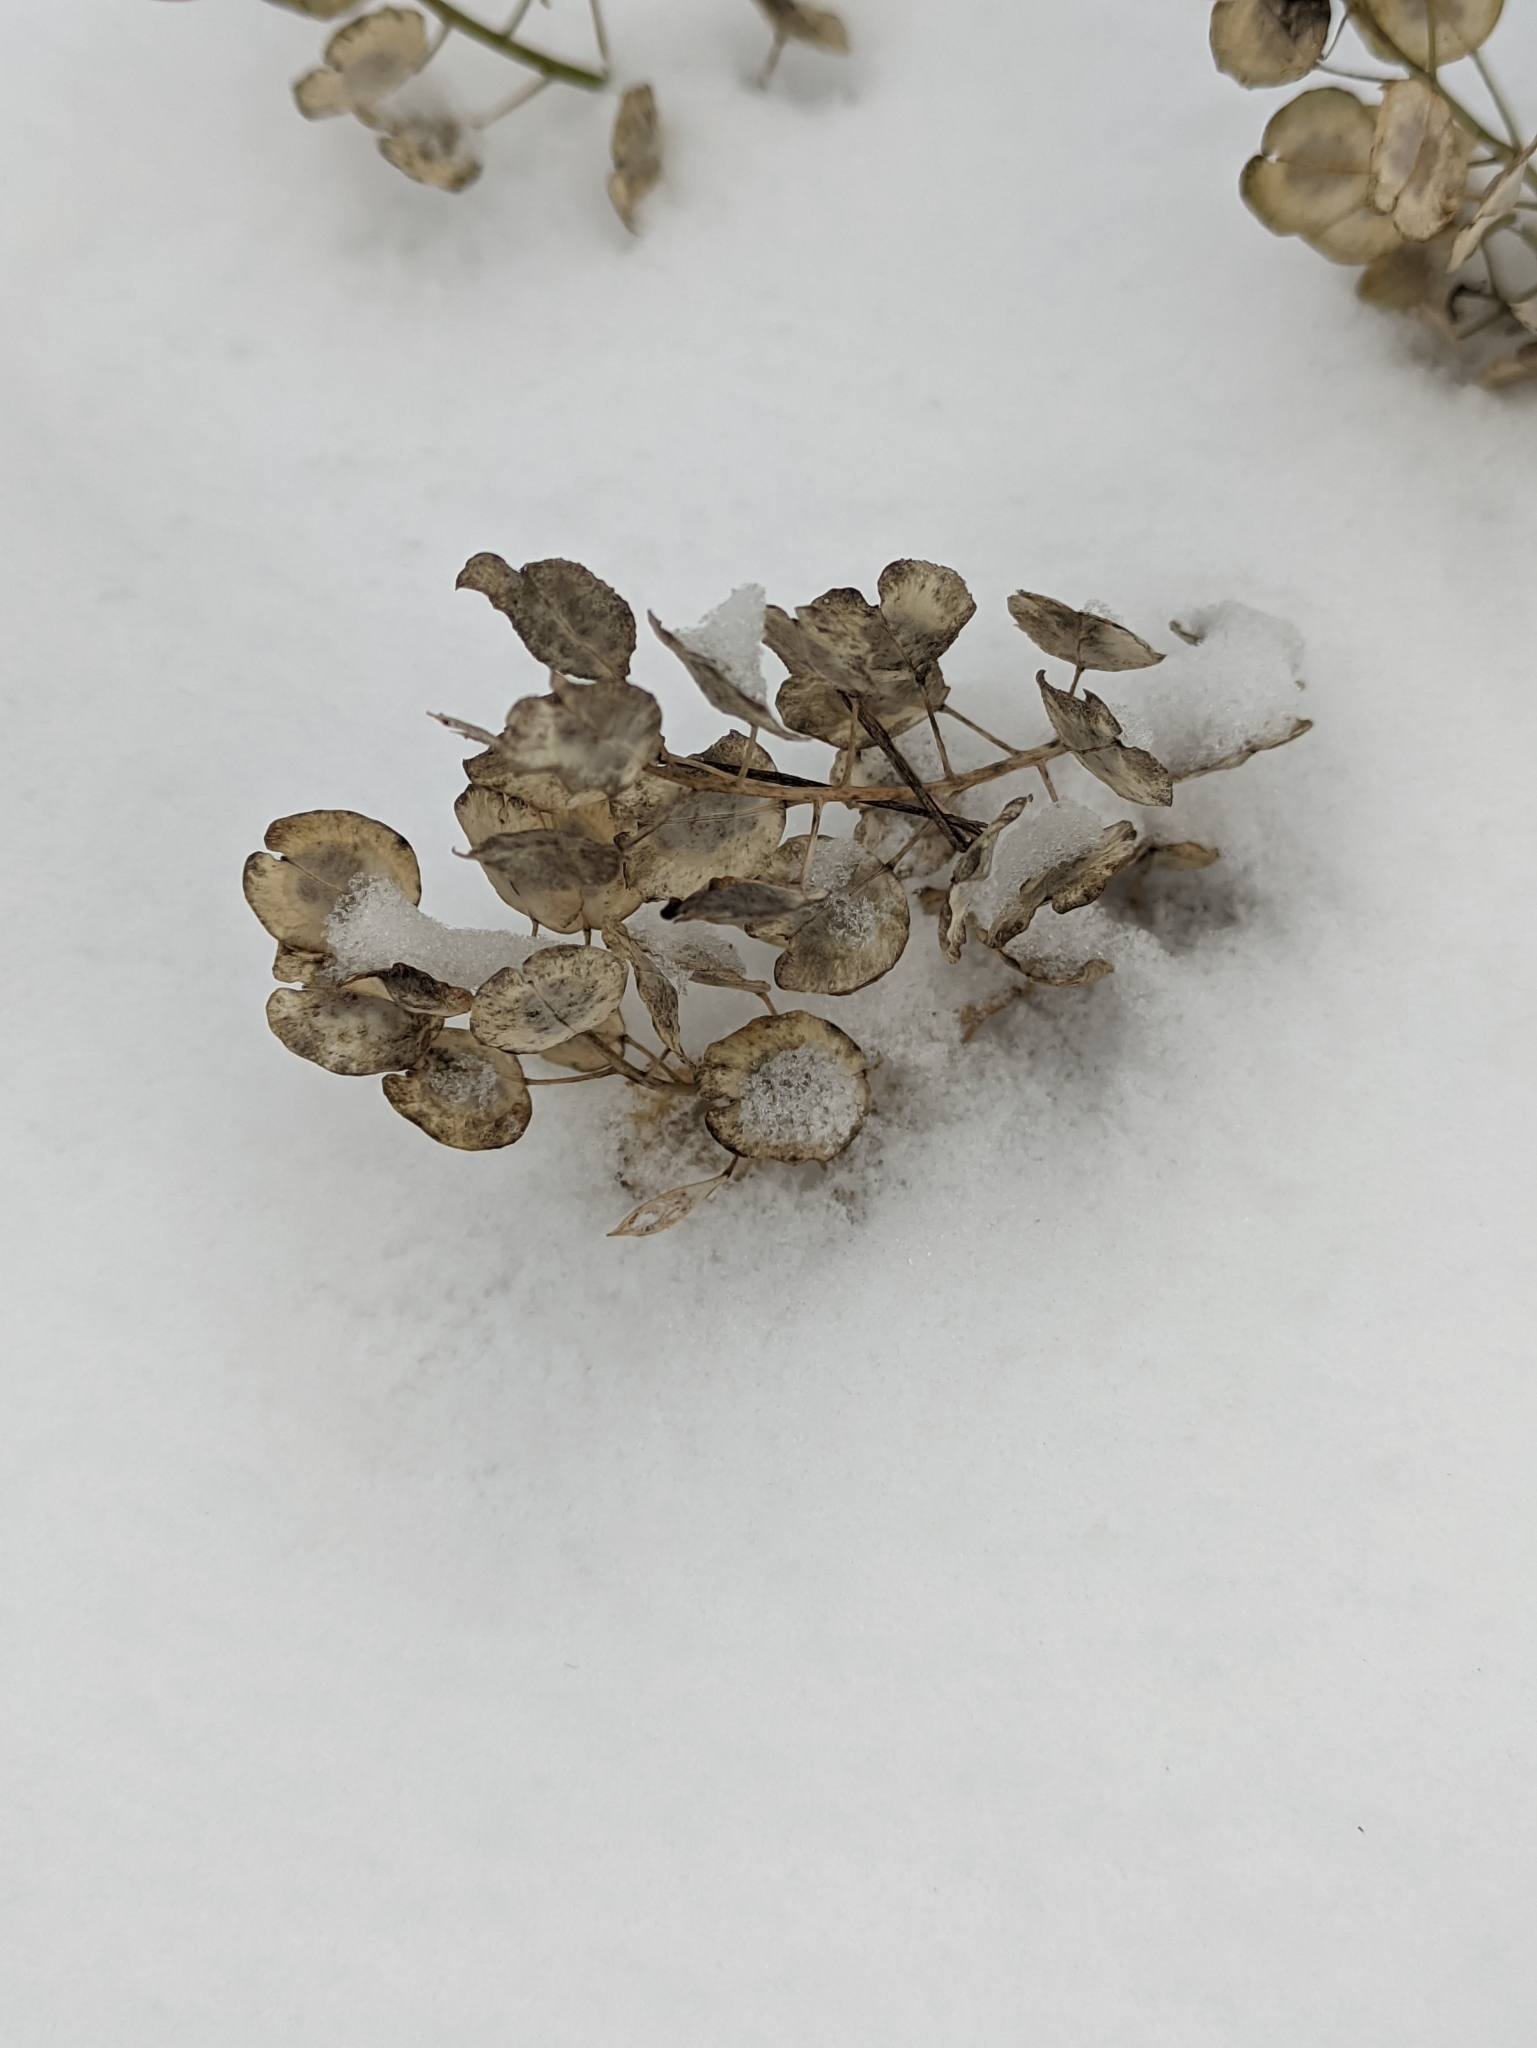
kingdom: Plantae
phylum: Tracheophyta
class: Magnoliopsida
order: Brassicales
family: Brassicaceae
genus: Thlaspi
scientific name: Thlaspi arvense
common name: Field pennycress
